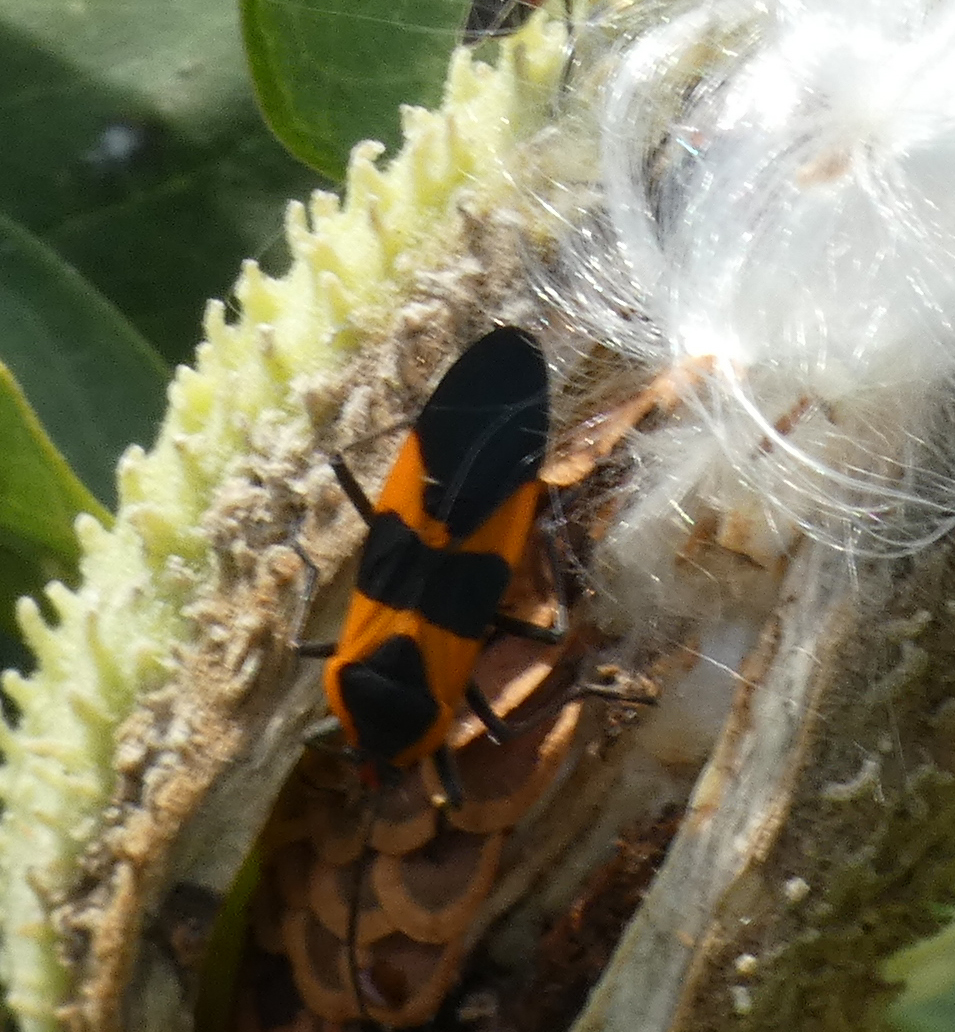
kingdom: Animalia
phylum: Arthropoda
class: Insecta
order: Hemiptera
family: Lygaeidae
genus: Oncopeltus
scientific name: Oncopeltus fasciatus
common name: Large milkweed bug
